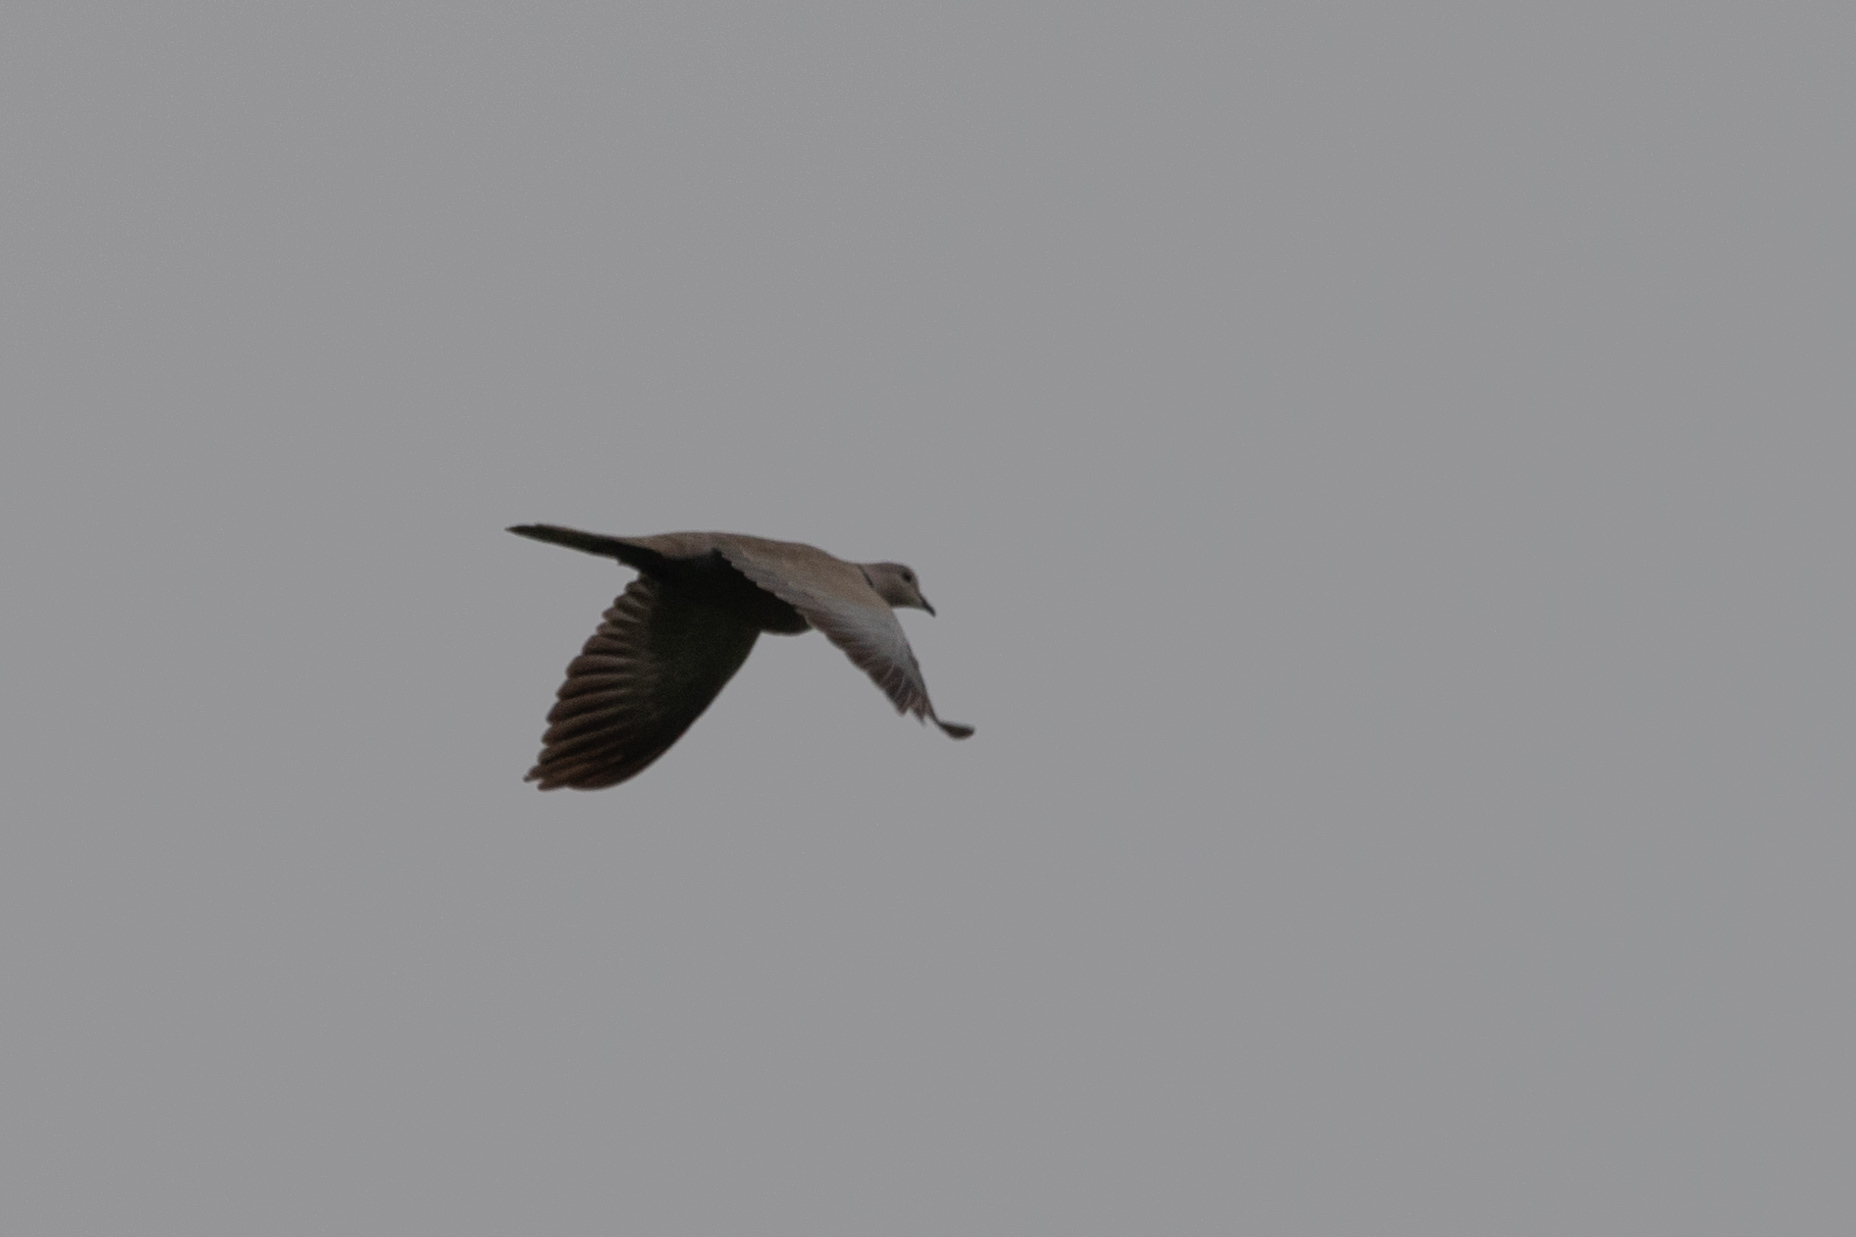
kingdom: Animalia
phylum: Chordata
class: Aves
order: Columbiformes
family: Columbidae
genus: Streptopelia
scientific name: Streptopelia decaocto
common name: Eurasian collared dove
